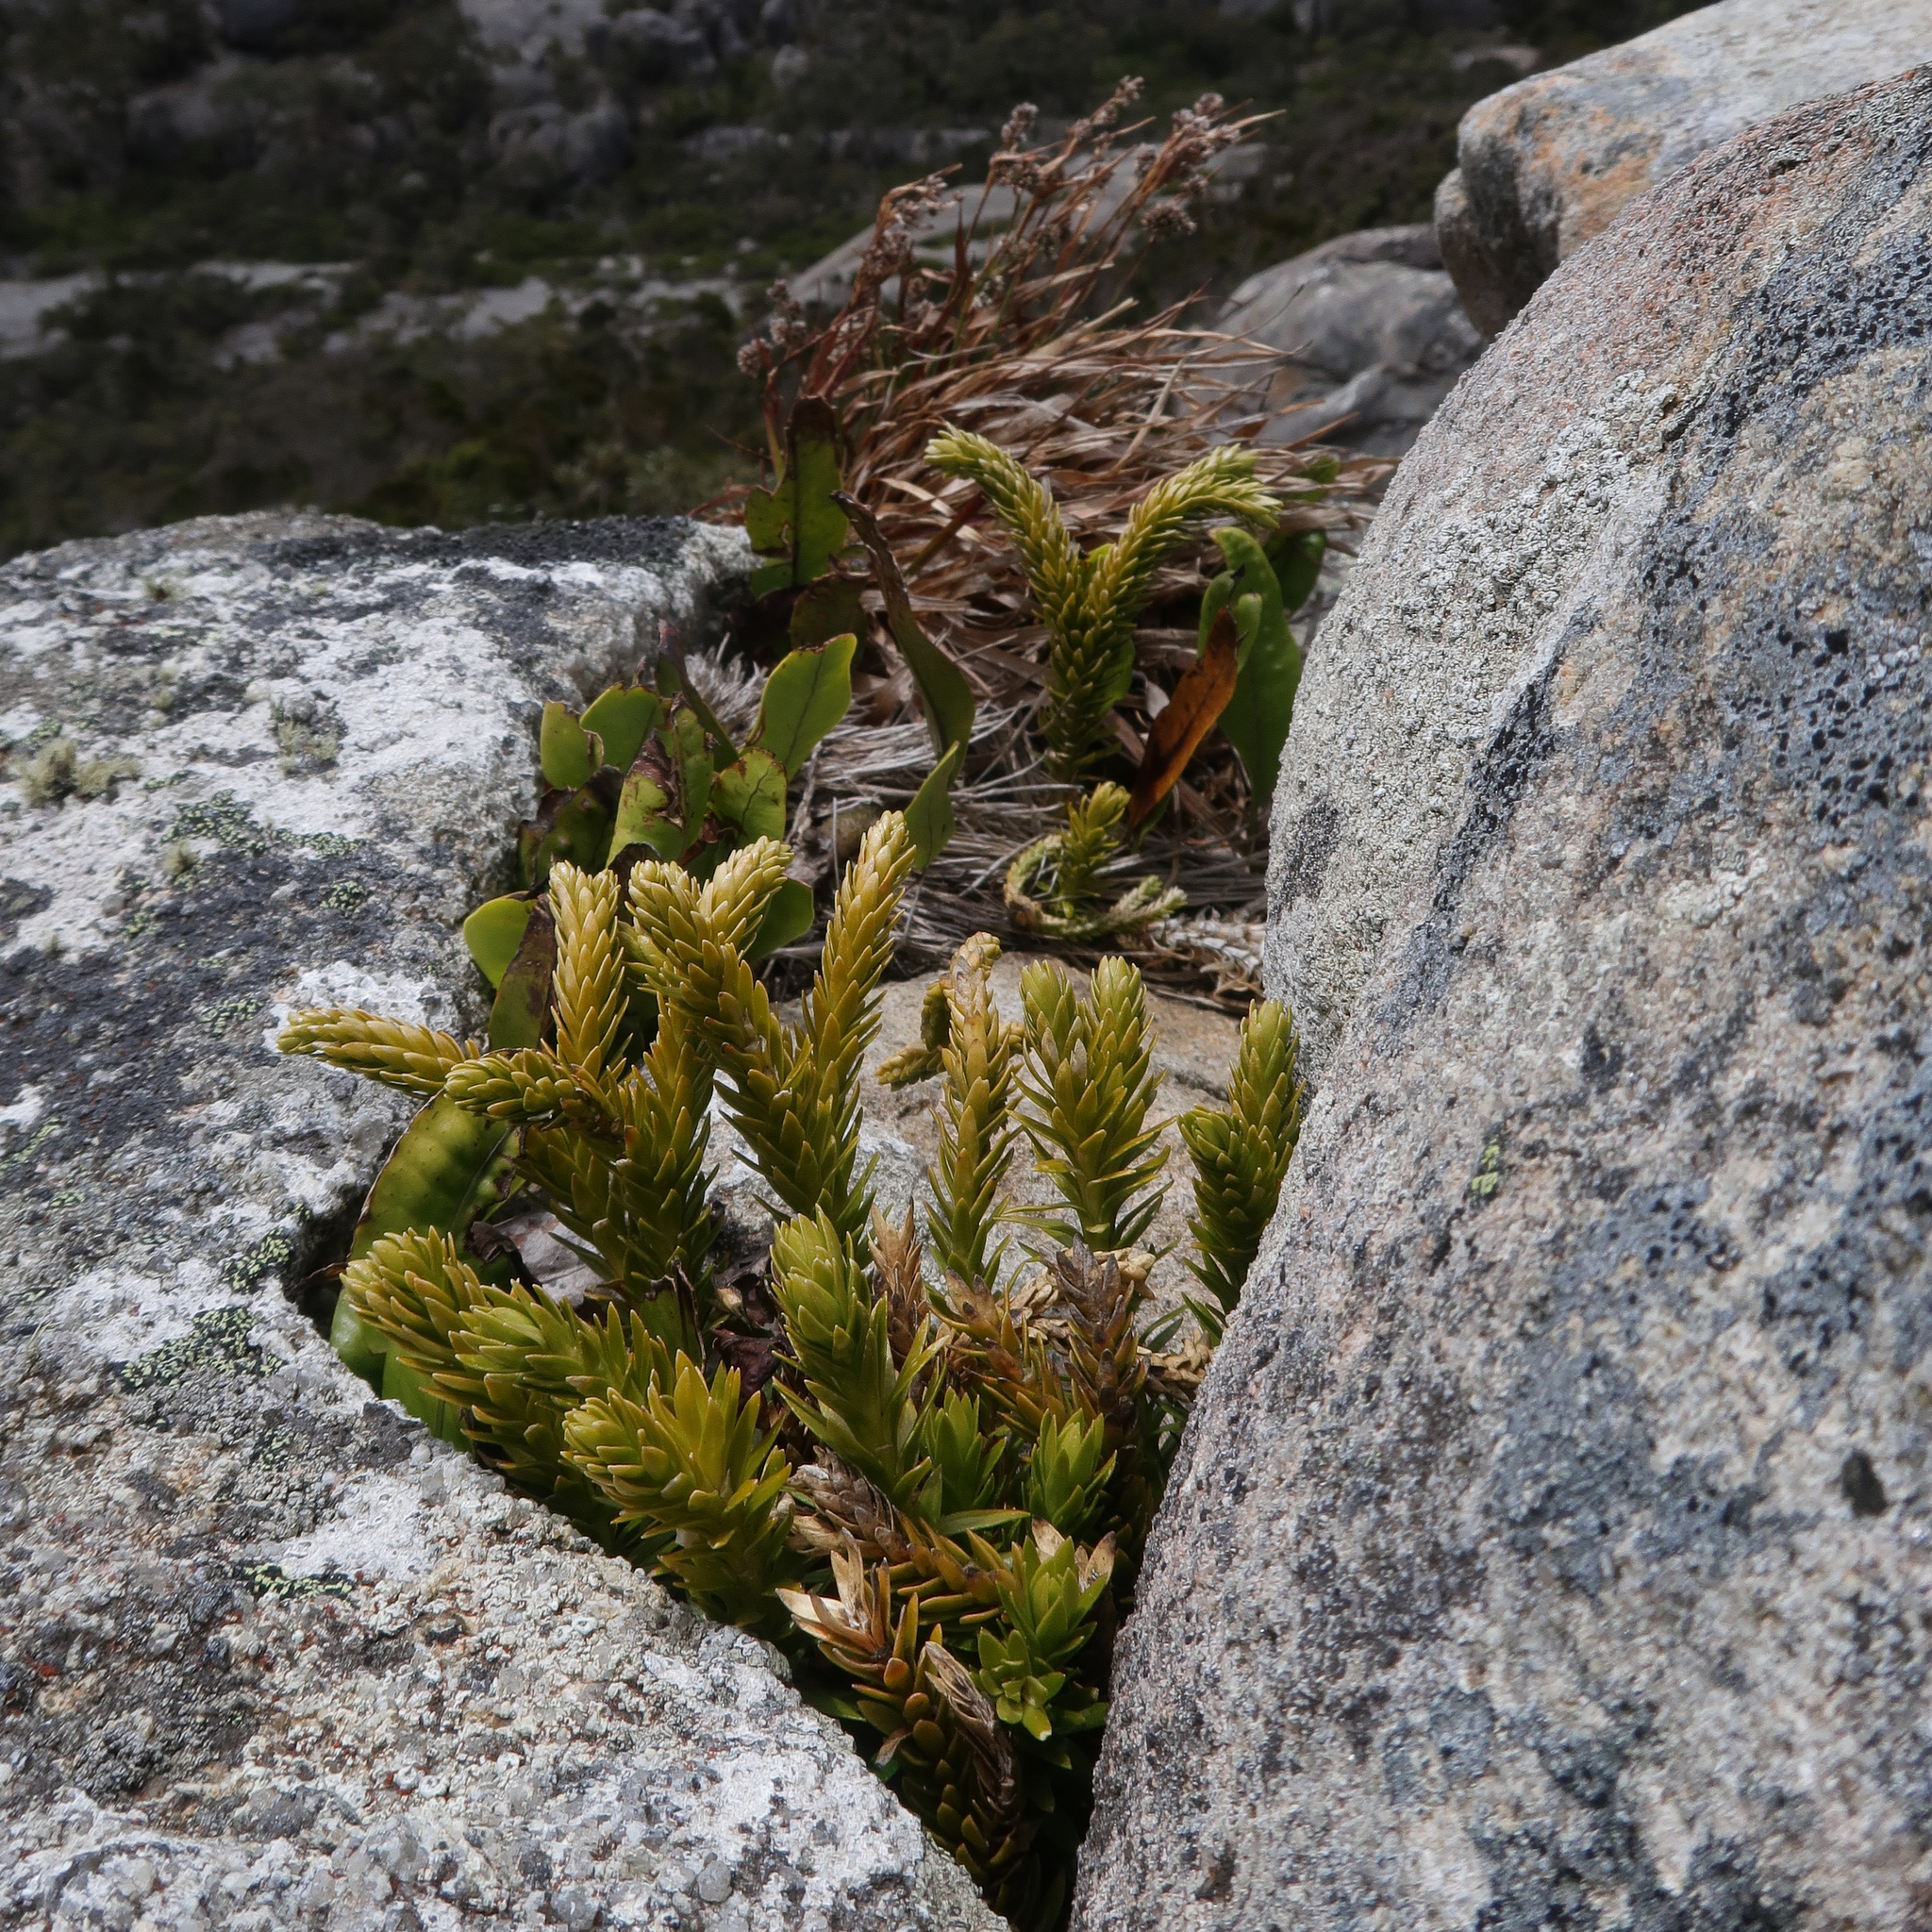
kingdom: Plantae
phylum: Tracheophyta
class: Lycopodiopsida
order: Lycopodiales
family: Lycopodiaceae
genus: Phlegmariurus
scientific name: Phlegmariurus varius
